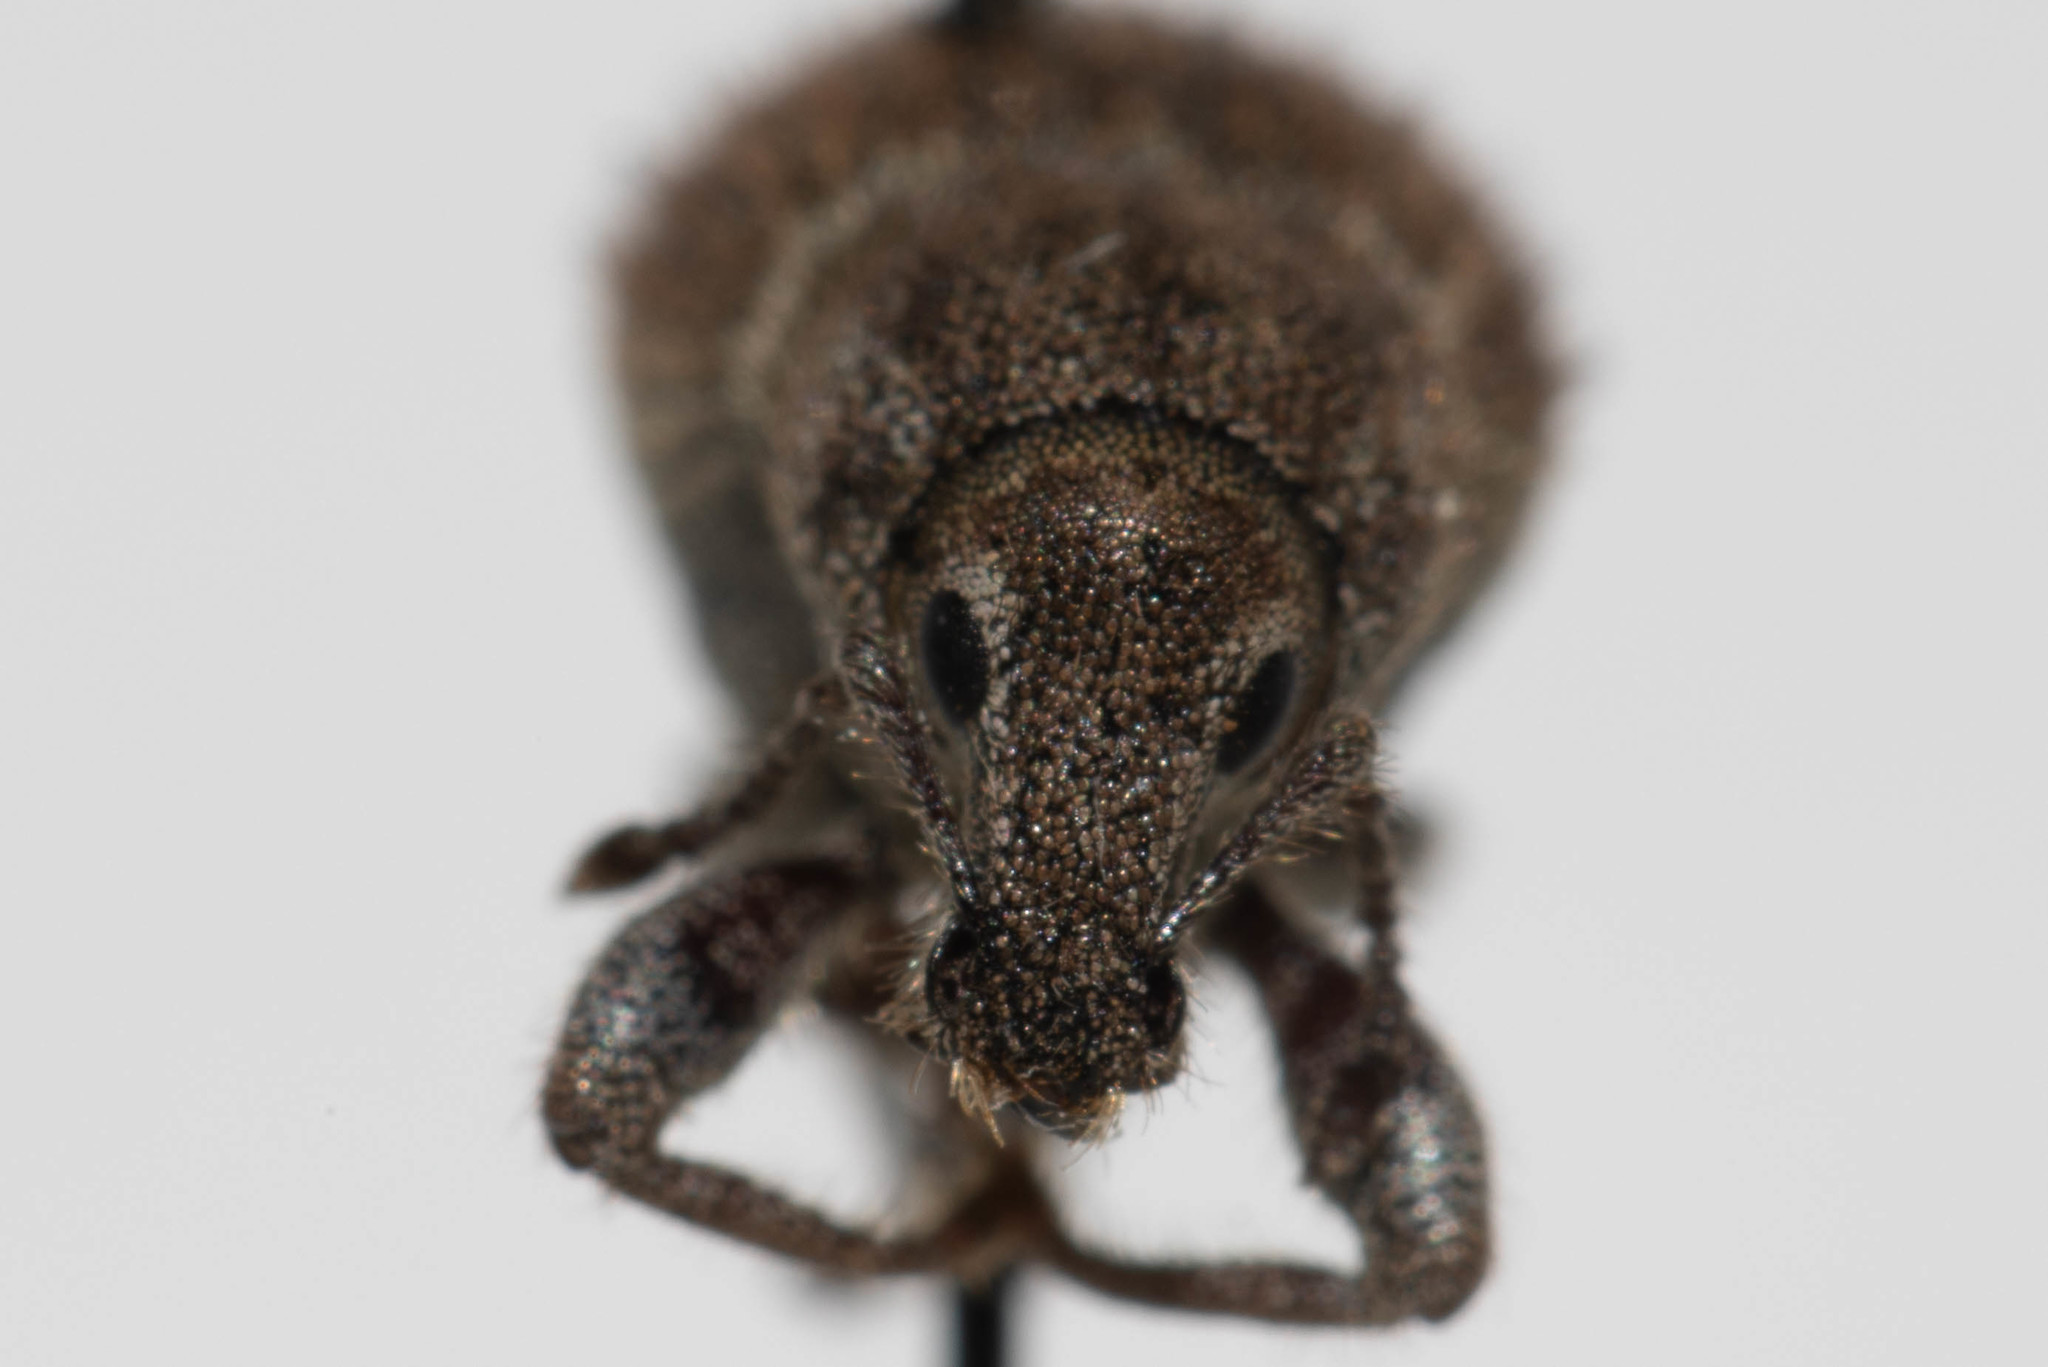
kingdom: Animalia
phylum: Arthropoda
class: Insecta
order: Coleoptera
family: Curculionidae
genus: Dyslobus
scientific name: Dyslobus luteus
